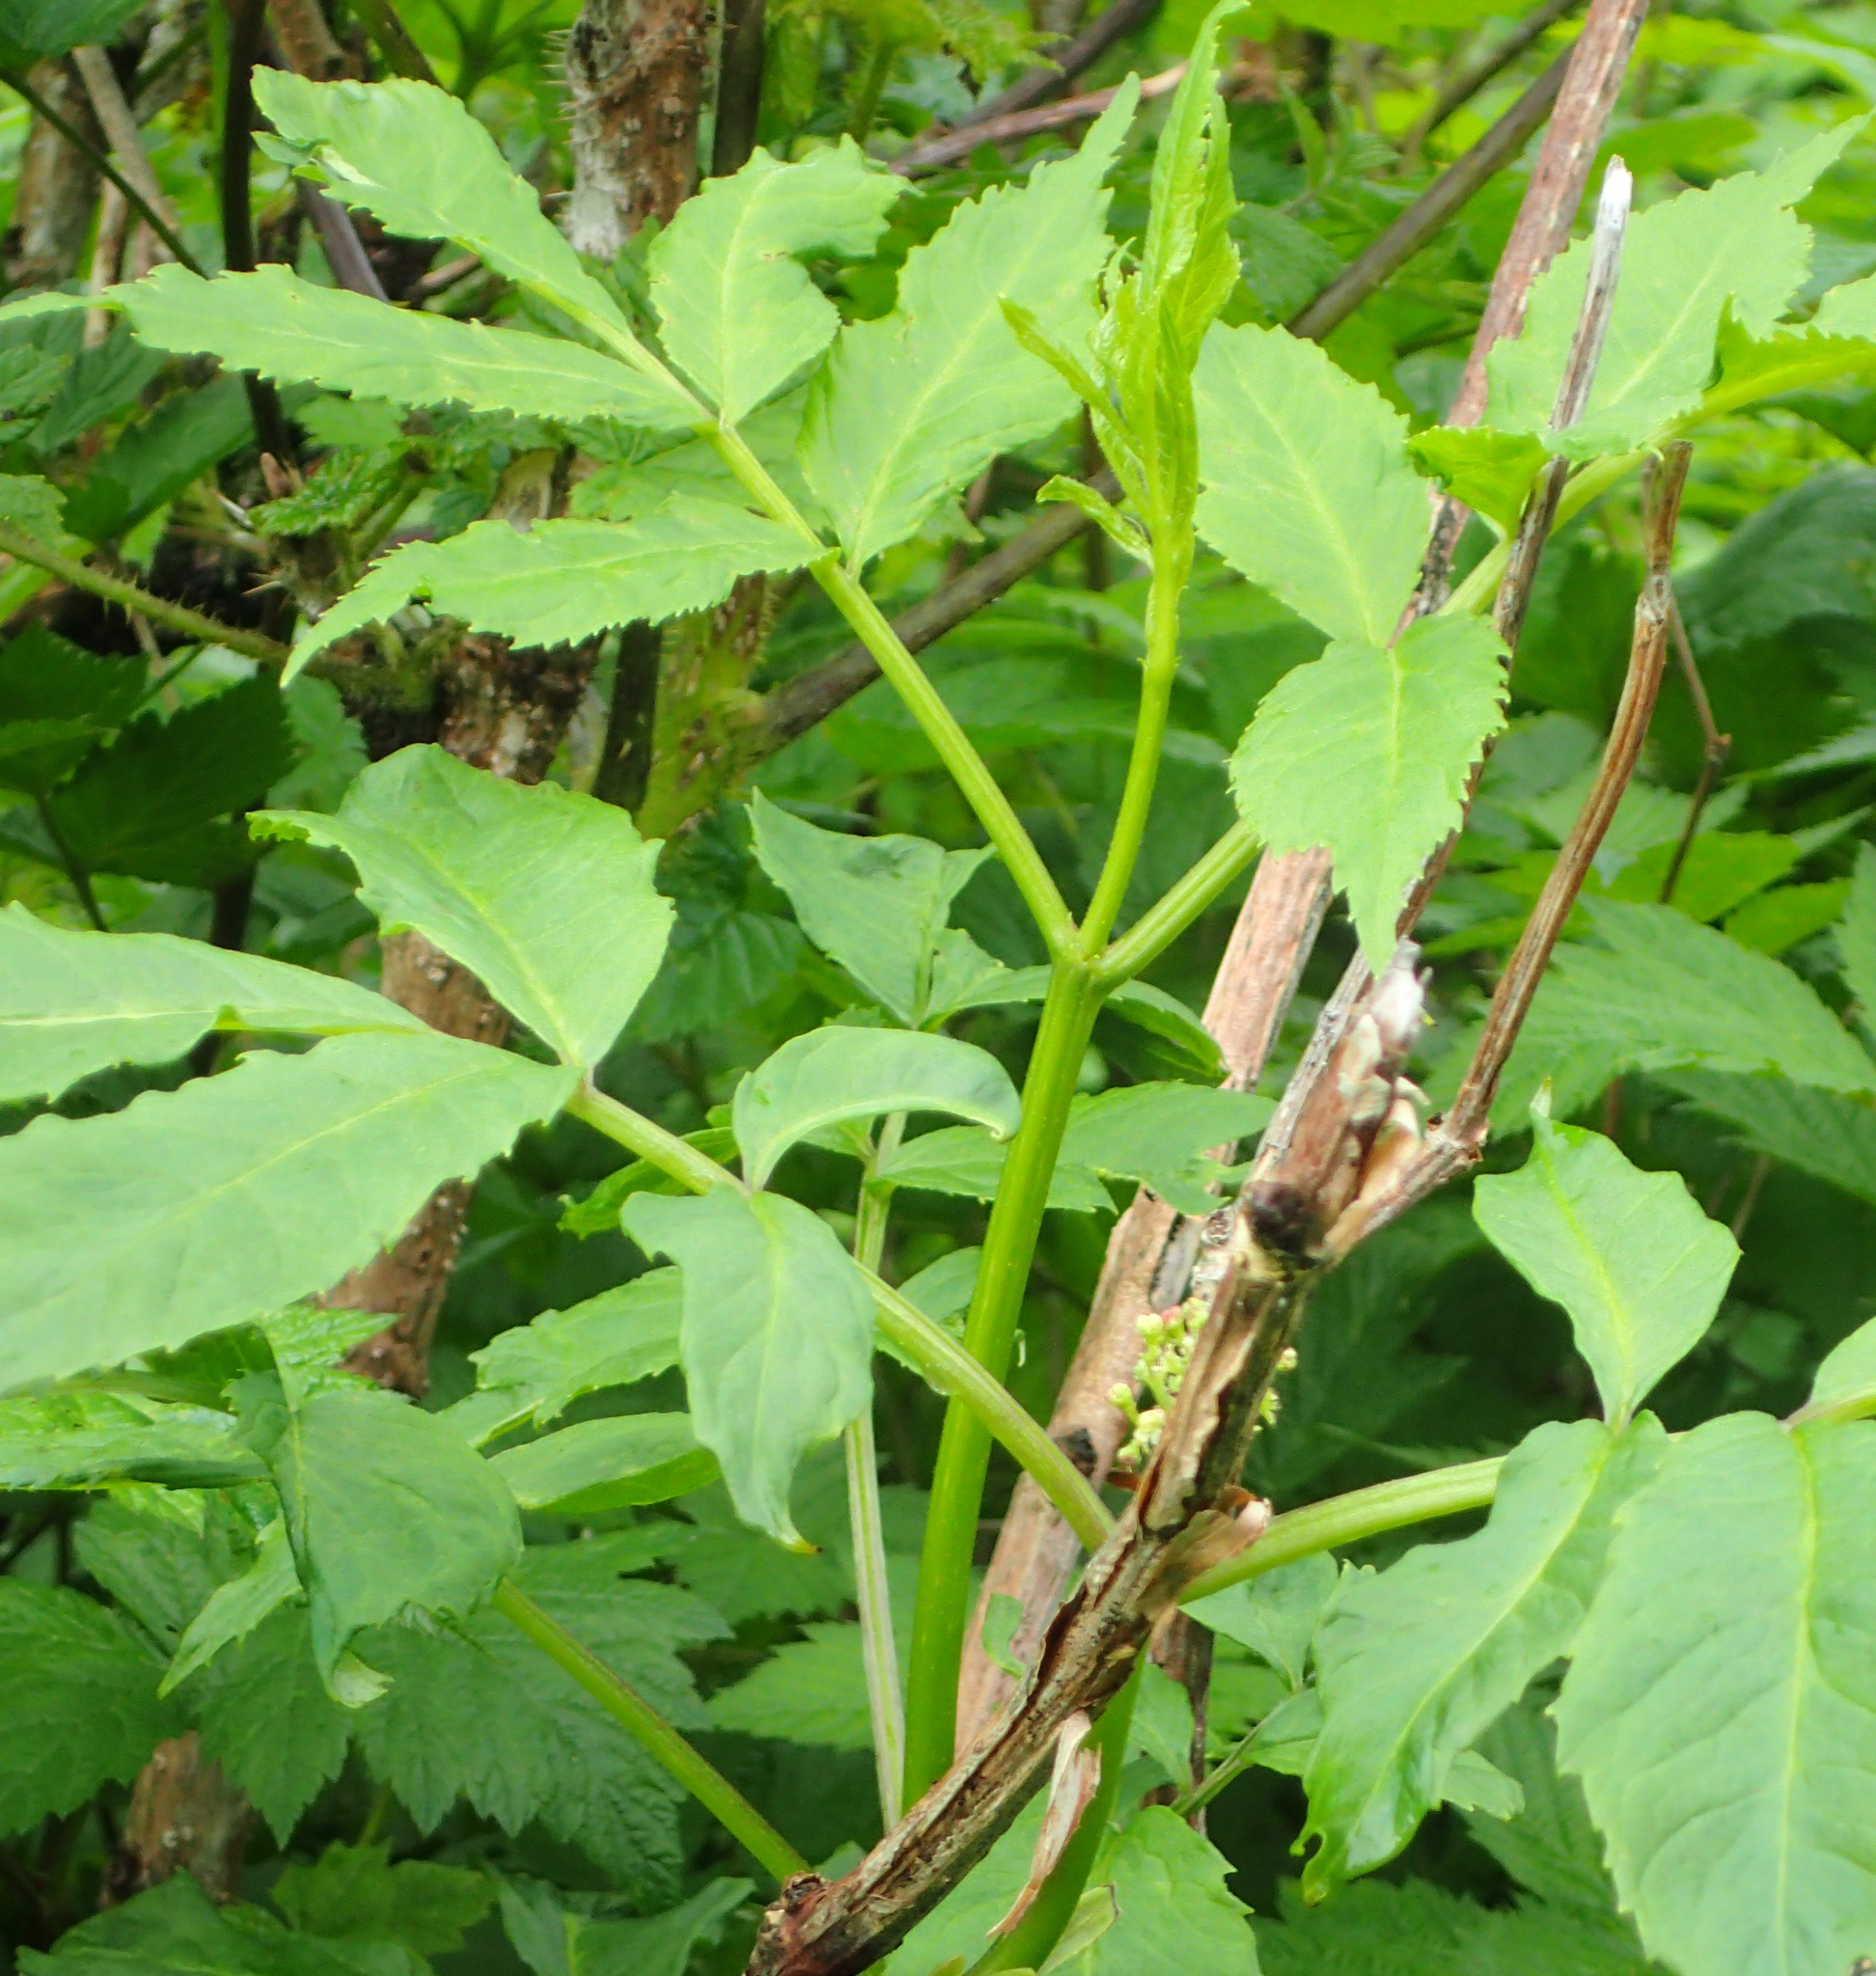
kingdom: Plantae
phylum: Tracheophyta
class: Magnoliopsida
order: Dipsacales
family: Viburnaceae
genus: Sambucus
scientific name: Sambucus racemosa
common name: Red-berried elder
